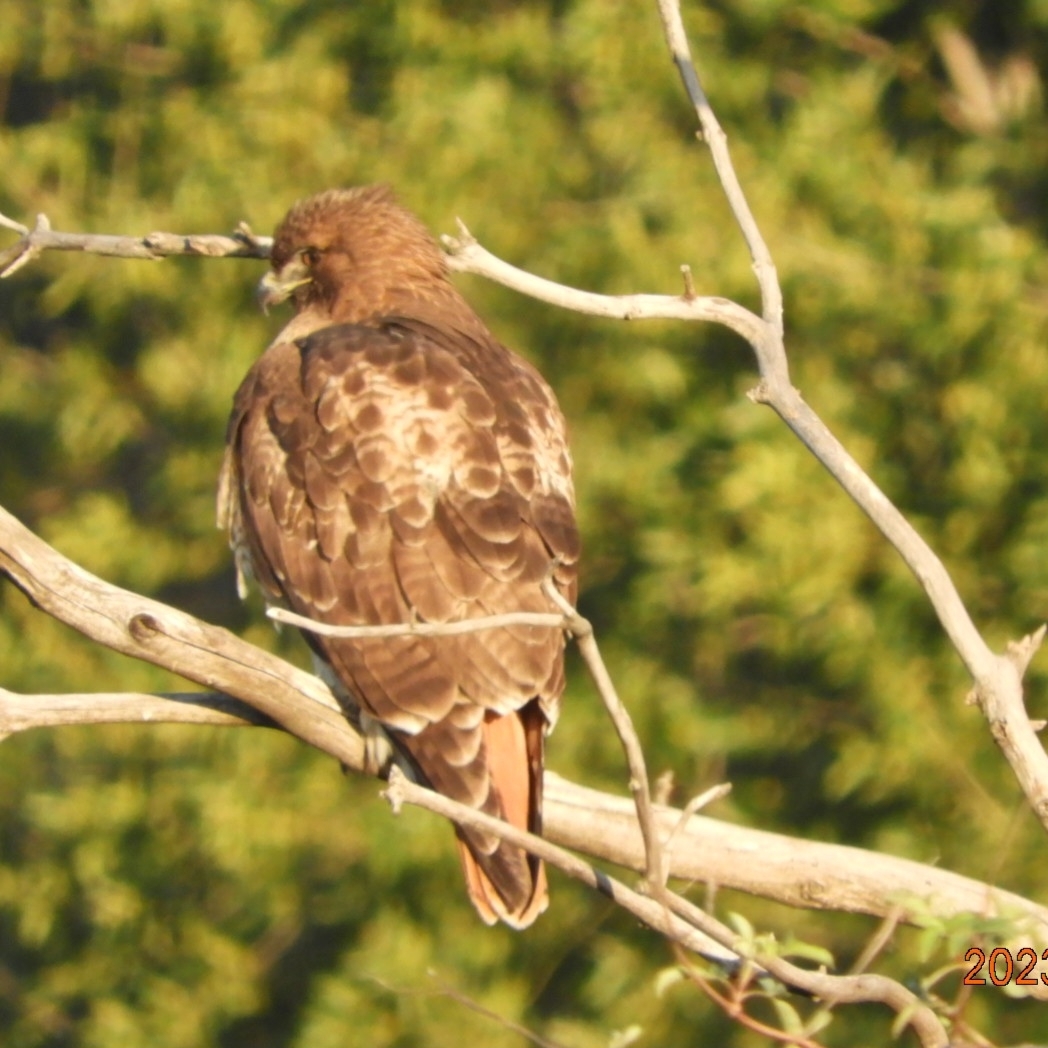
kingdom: Animalia
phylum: Chordata
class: Aves
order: Accipitriformes
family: Accipitridae
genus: Buteo
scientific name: Buteo jamaicensis
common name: Red-tailed hawk
